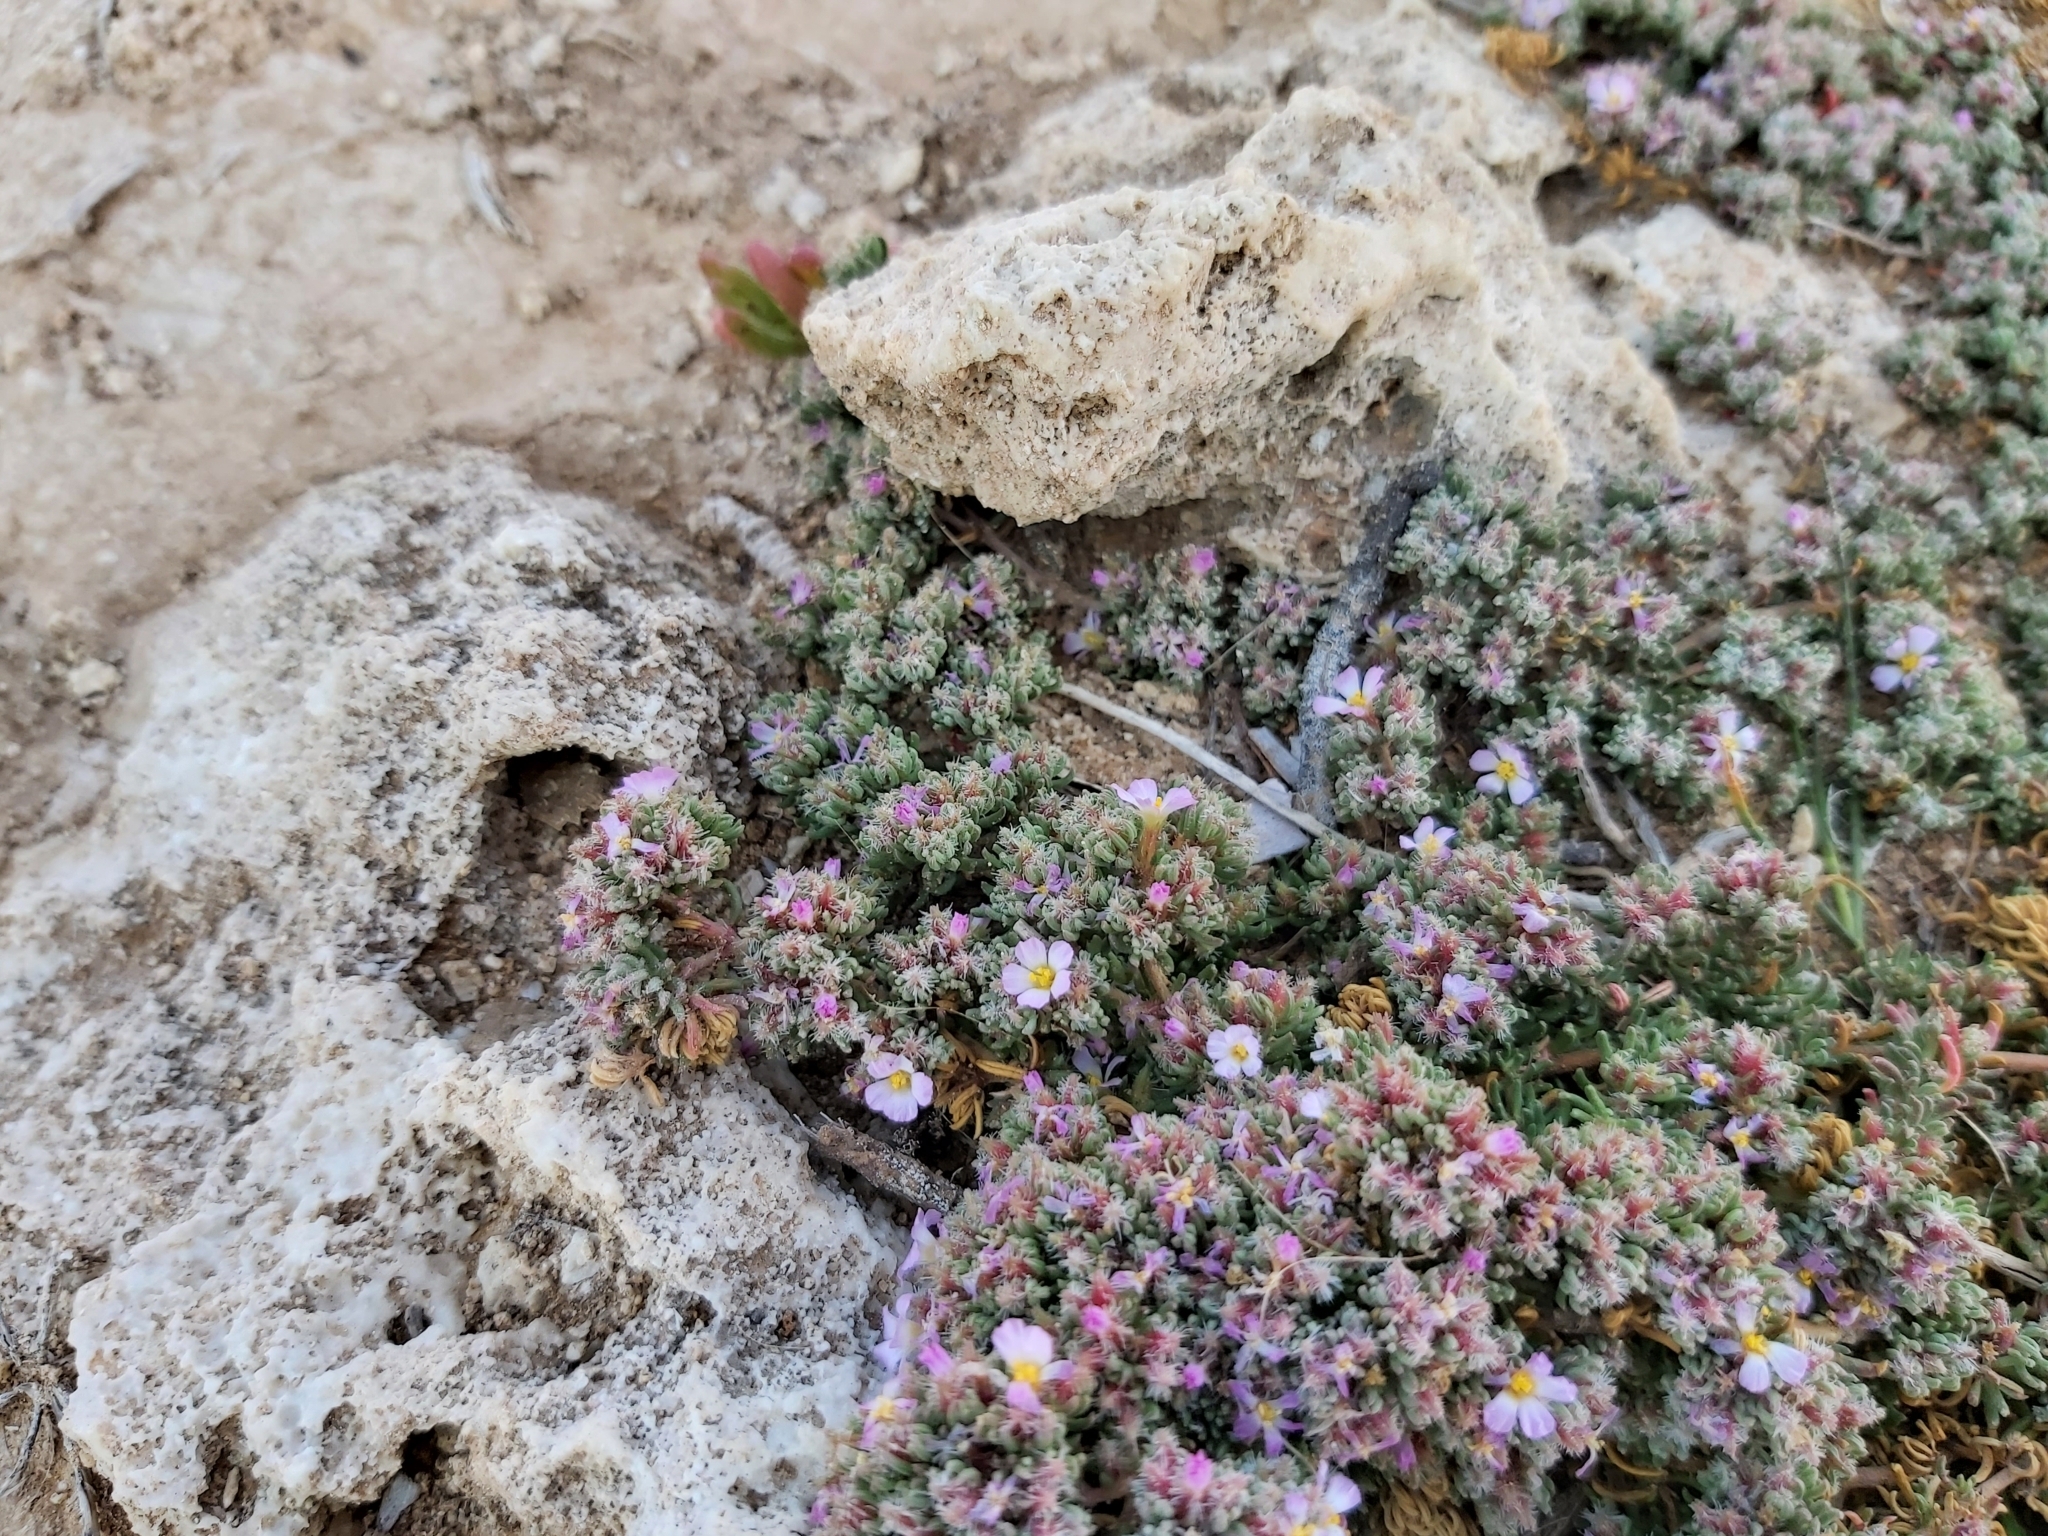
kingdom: Plantae
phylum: Tracheophyta
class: Magnoliopsida
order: Caryophyllales
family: Frankeniaceae
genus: Frankenia
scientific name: Frankenia hirsuta
